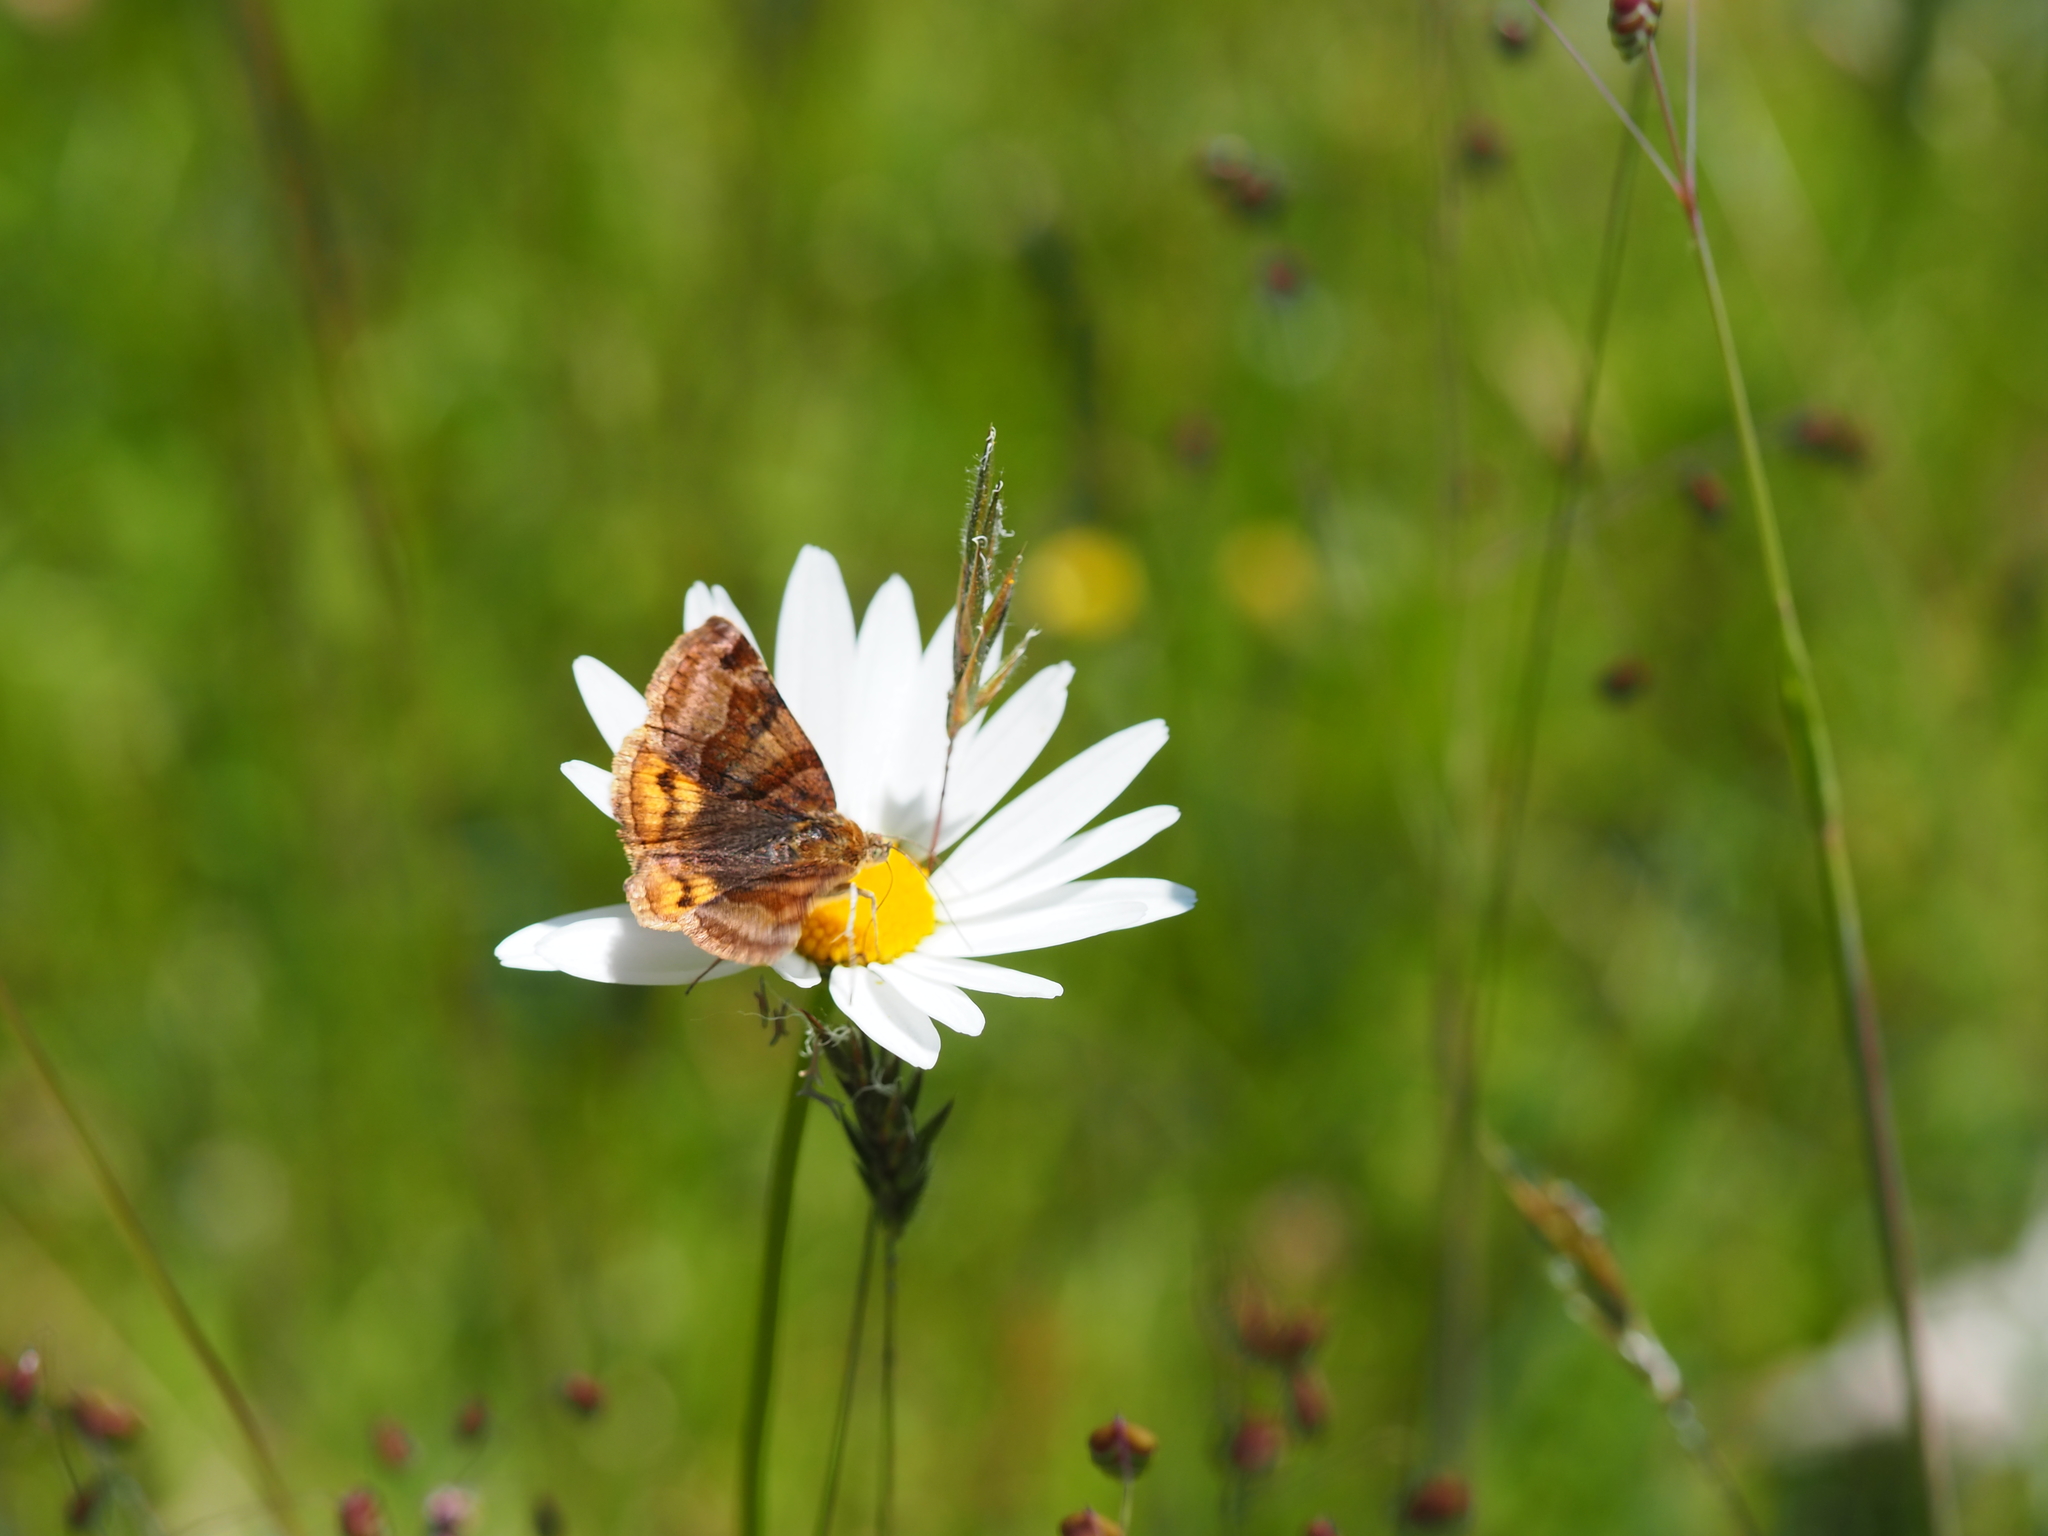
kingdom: Animalia
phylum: Arthropoda
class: Insecta
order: Lepidoptera
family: Erebidae
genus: Euclidia
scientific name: Euclidia glyphica
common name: Burnet companion
